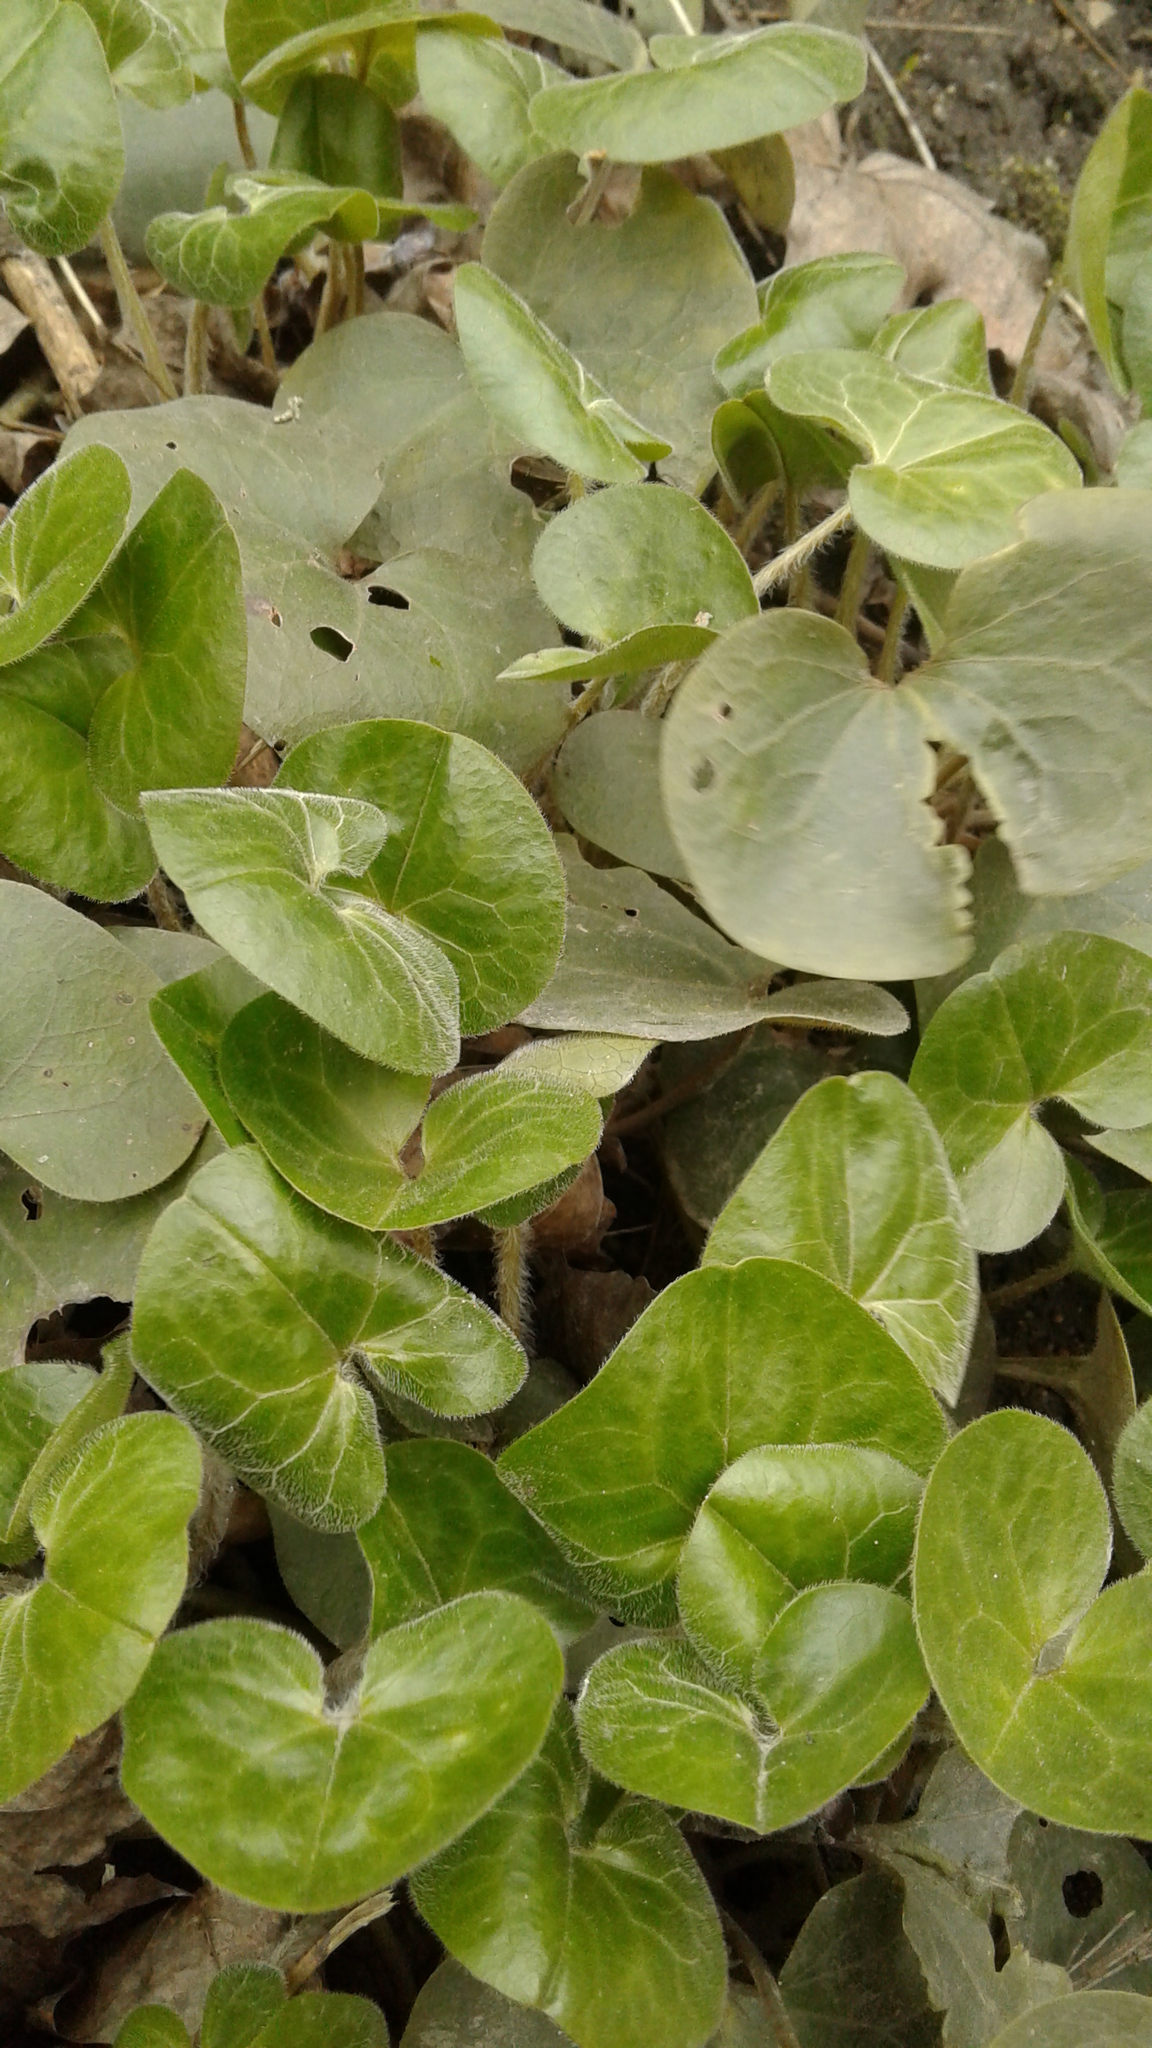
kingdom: Plantae
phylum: Tracheophyta
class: Magnoliopsida
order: Piperales
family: Aristolochiaceae
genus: Asarum
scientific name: Asarum europaeum
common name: Asarabacca
